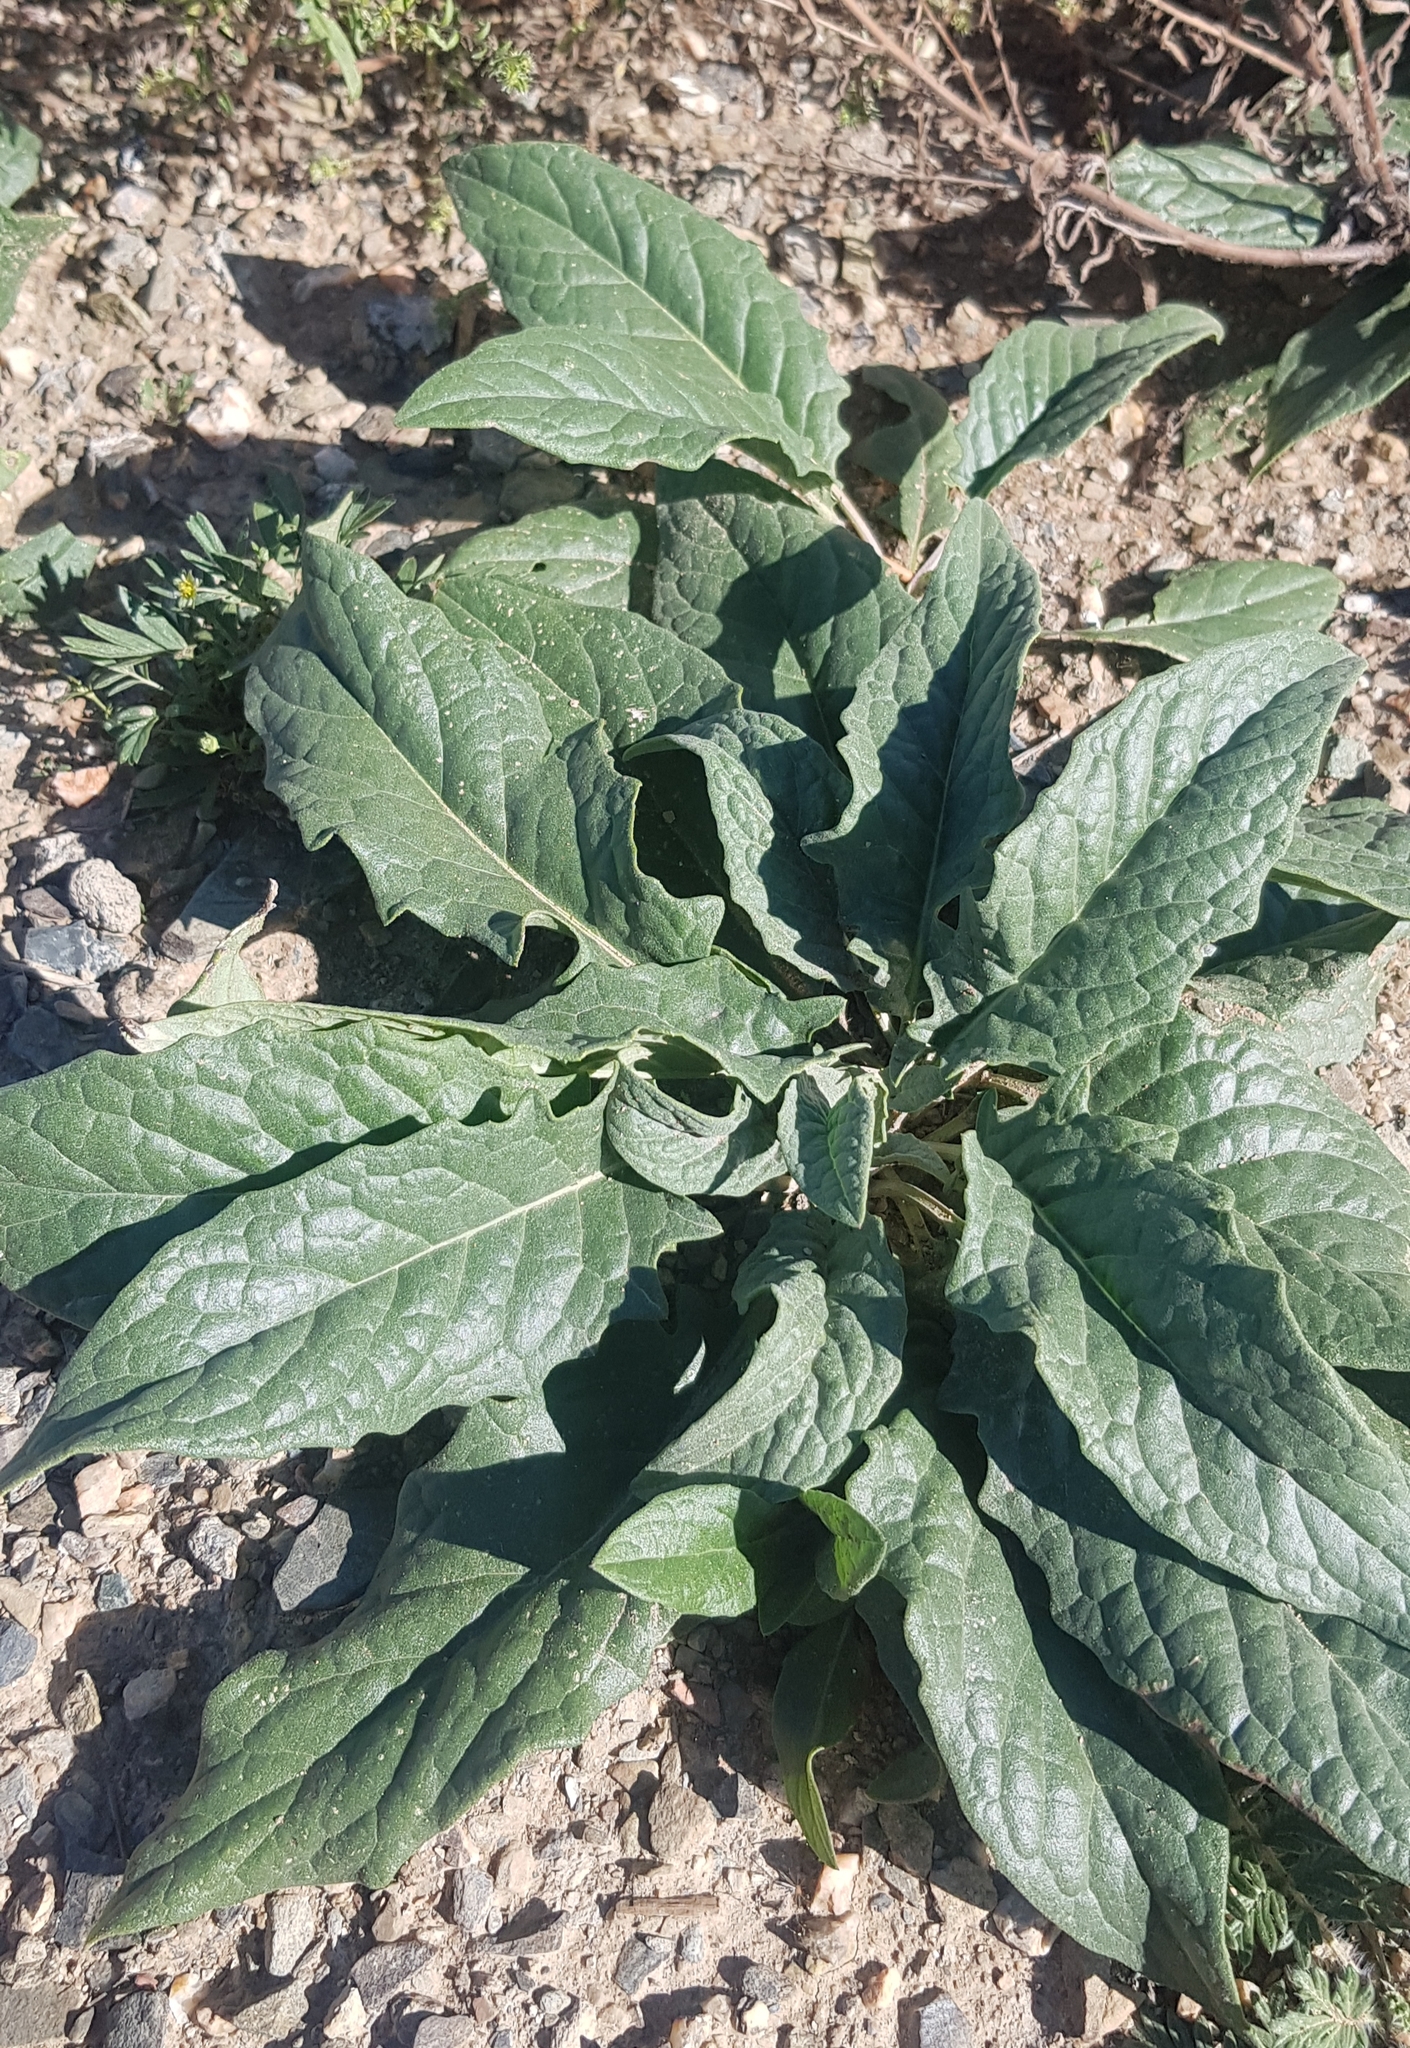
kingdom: Plantae
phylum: Tracheophyta
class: Magnoliopsida
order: Brassicales
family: Brassicaceae
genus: Catolobus
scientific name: Catolobus pendulus
